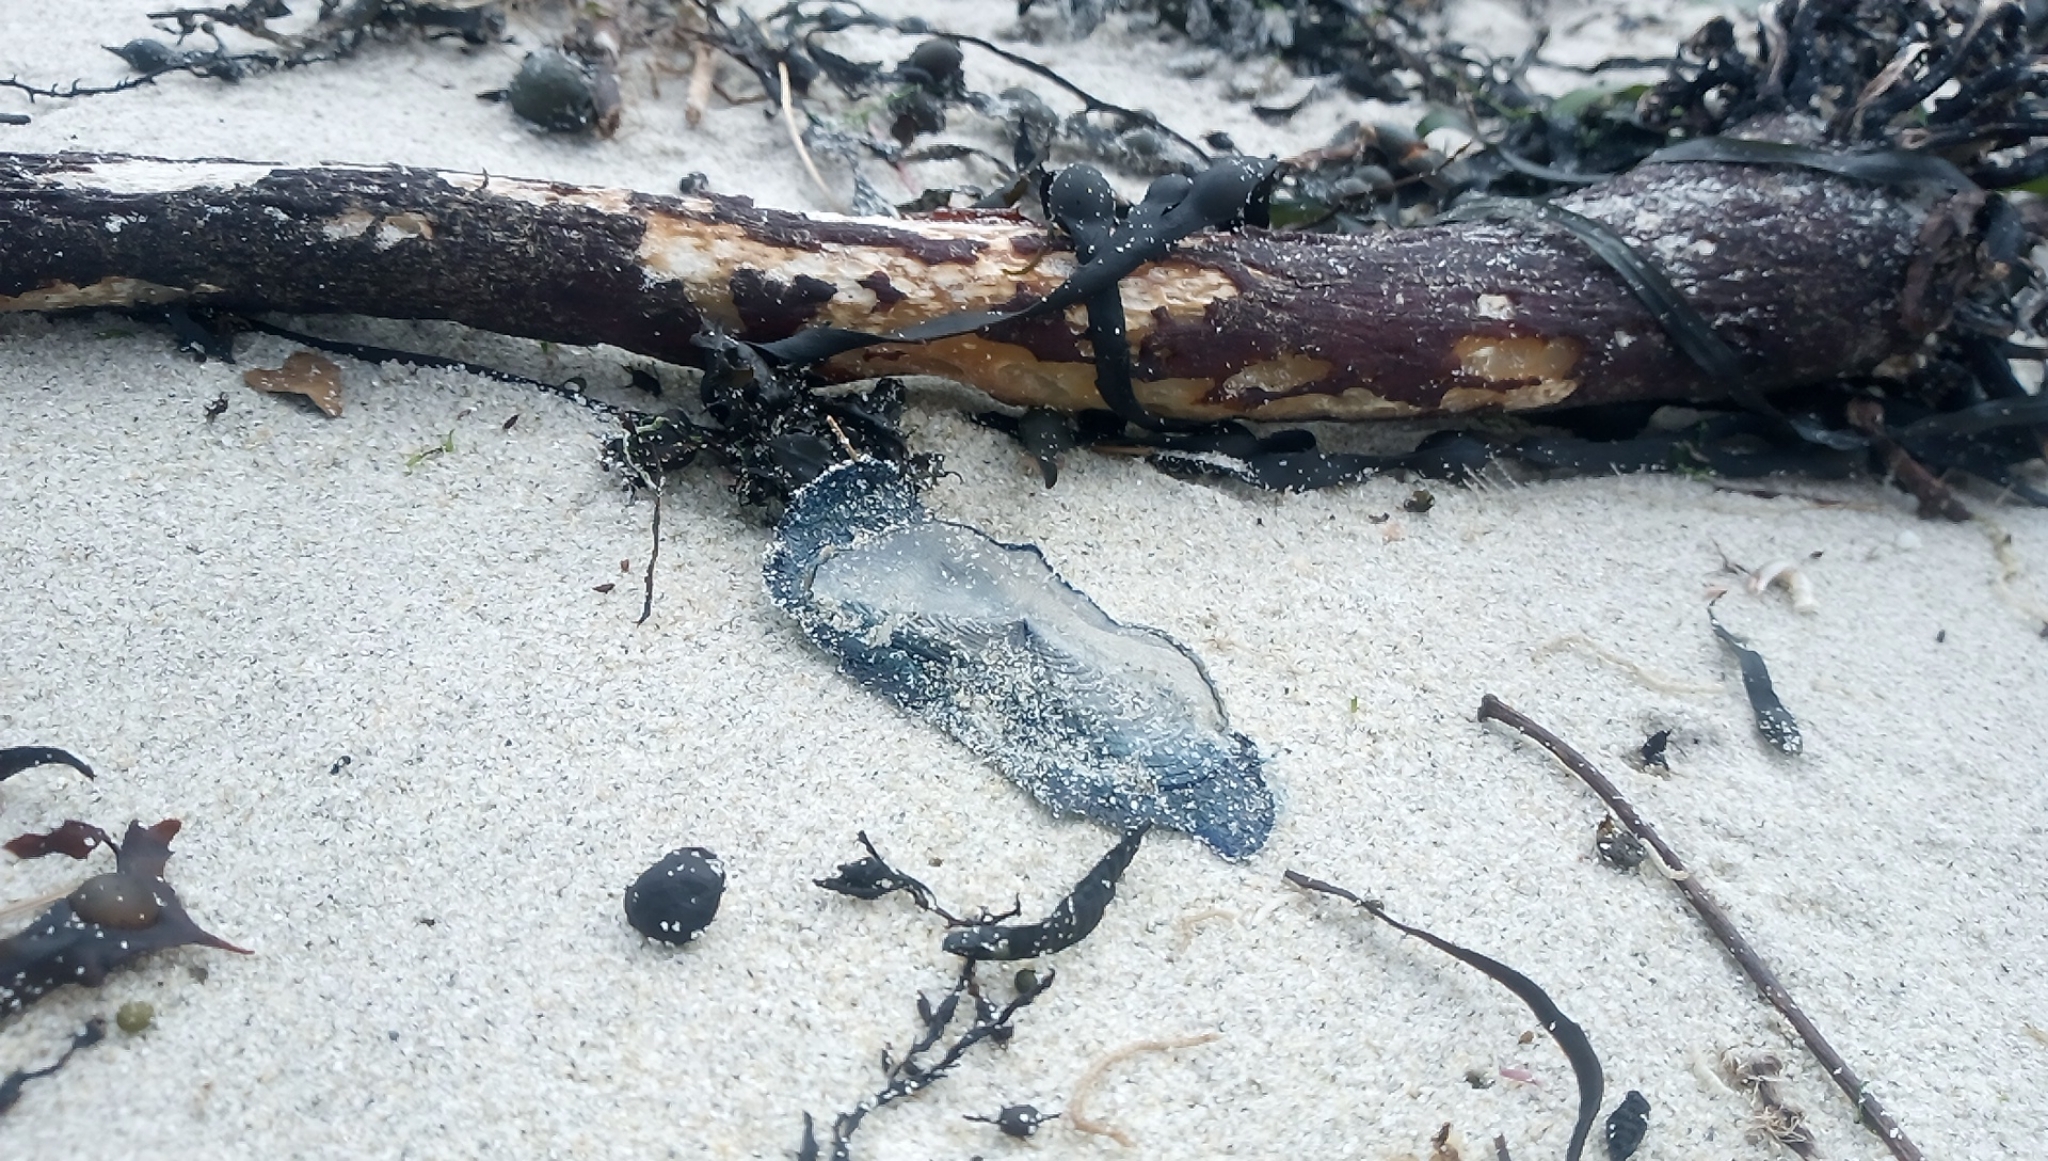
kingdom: Animalia
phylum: Cnidaria
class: Hydrozoa
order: Anthoathecata
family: Porpitidae
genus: Velella
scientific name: Velella velella
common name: By-the-wind-sailor
